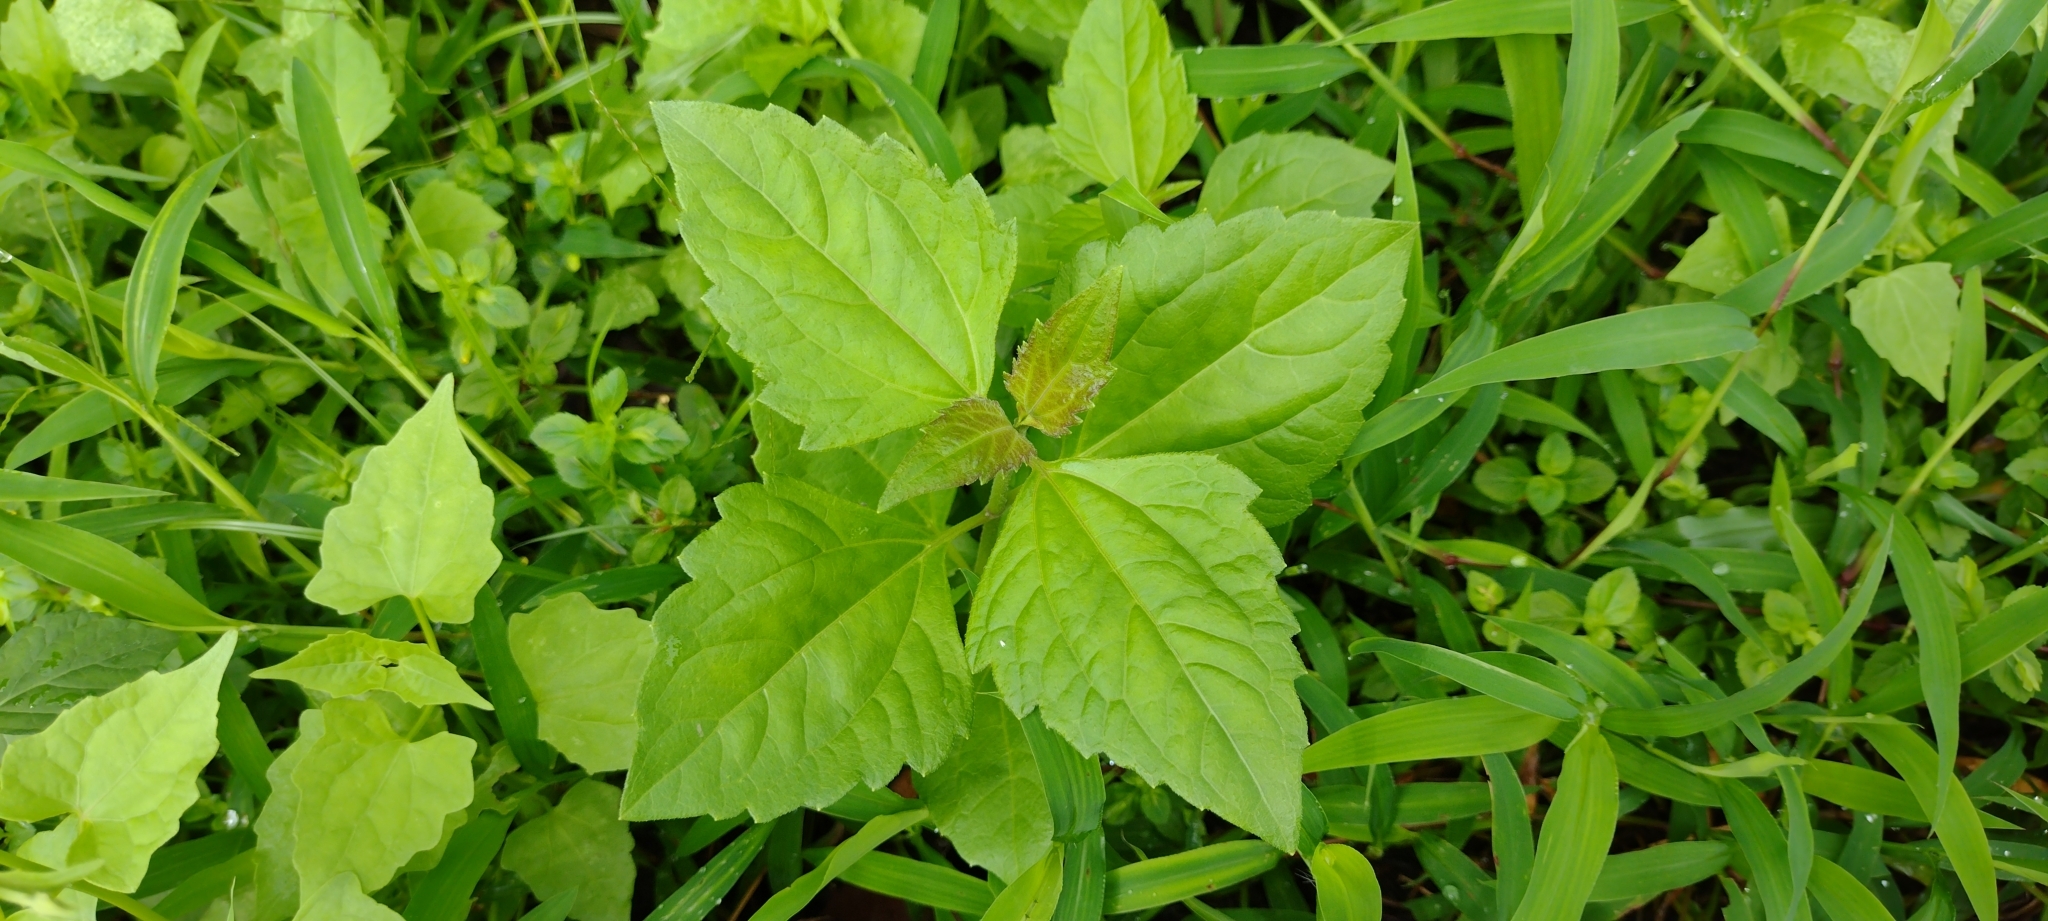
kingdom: Plantae
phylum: Tracheophyta
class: Magnoliopsida
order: Asterales
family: Asteraceae
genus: Chromolaena
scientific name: Chromolaena odorata
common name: Siamweed
